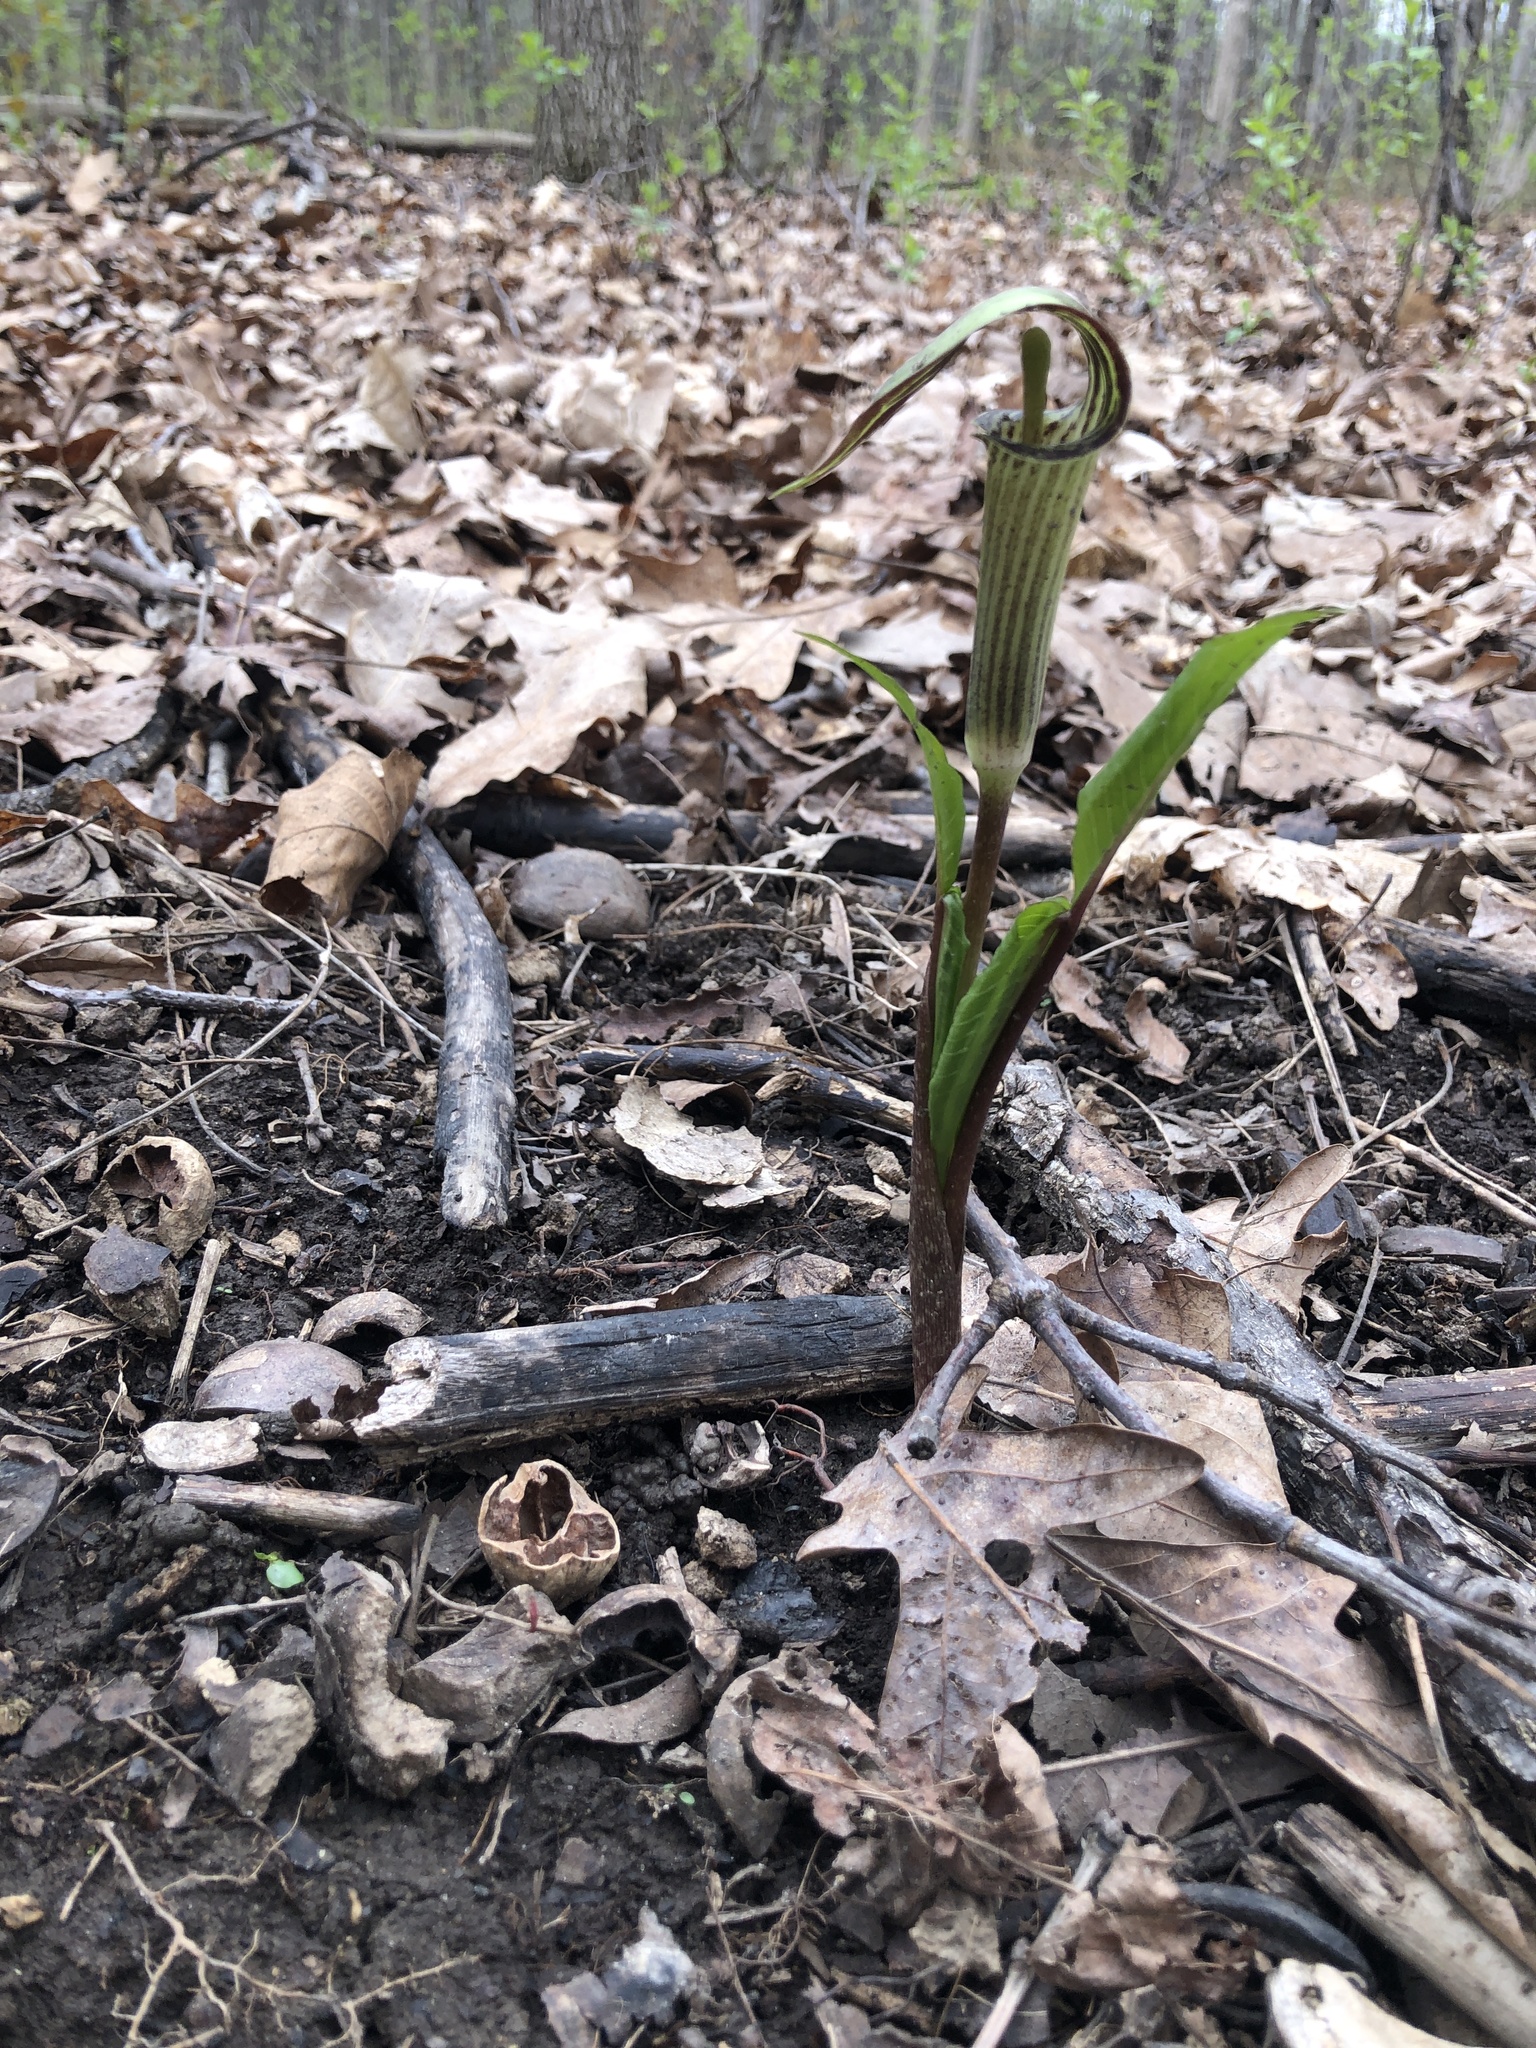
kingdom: Plantae
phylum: Tracheophyta
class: Liliopsida
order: Alismatales
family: Araceae
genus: Arisaema
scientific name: Arisaema triphyllum
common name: Jack-in-the-pulpit
